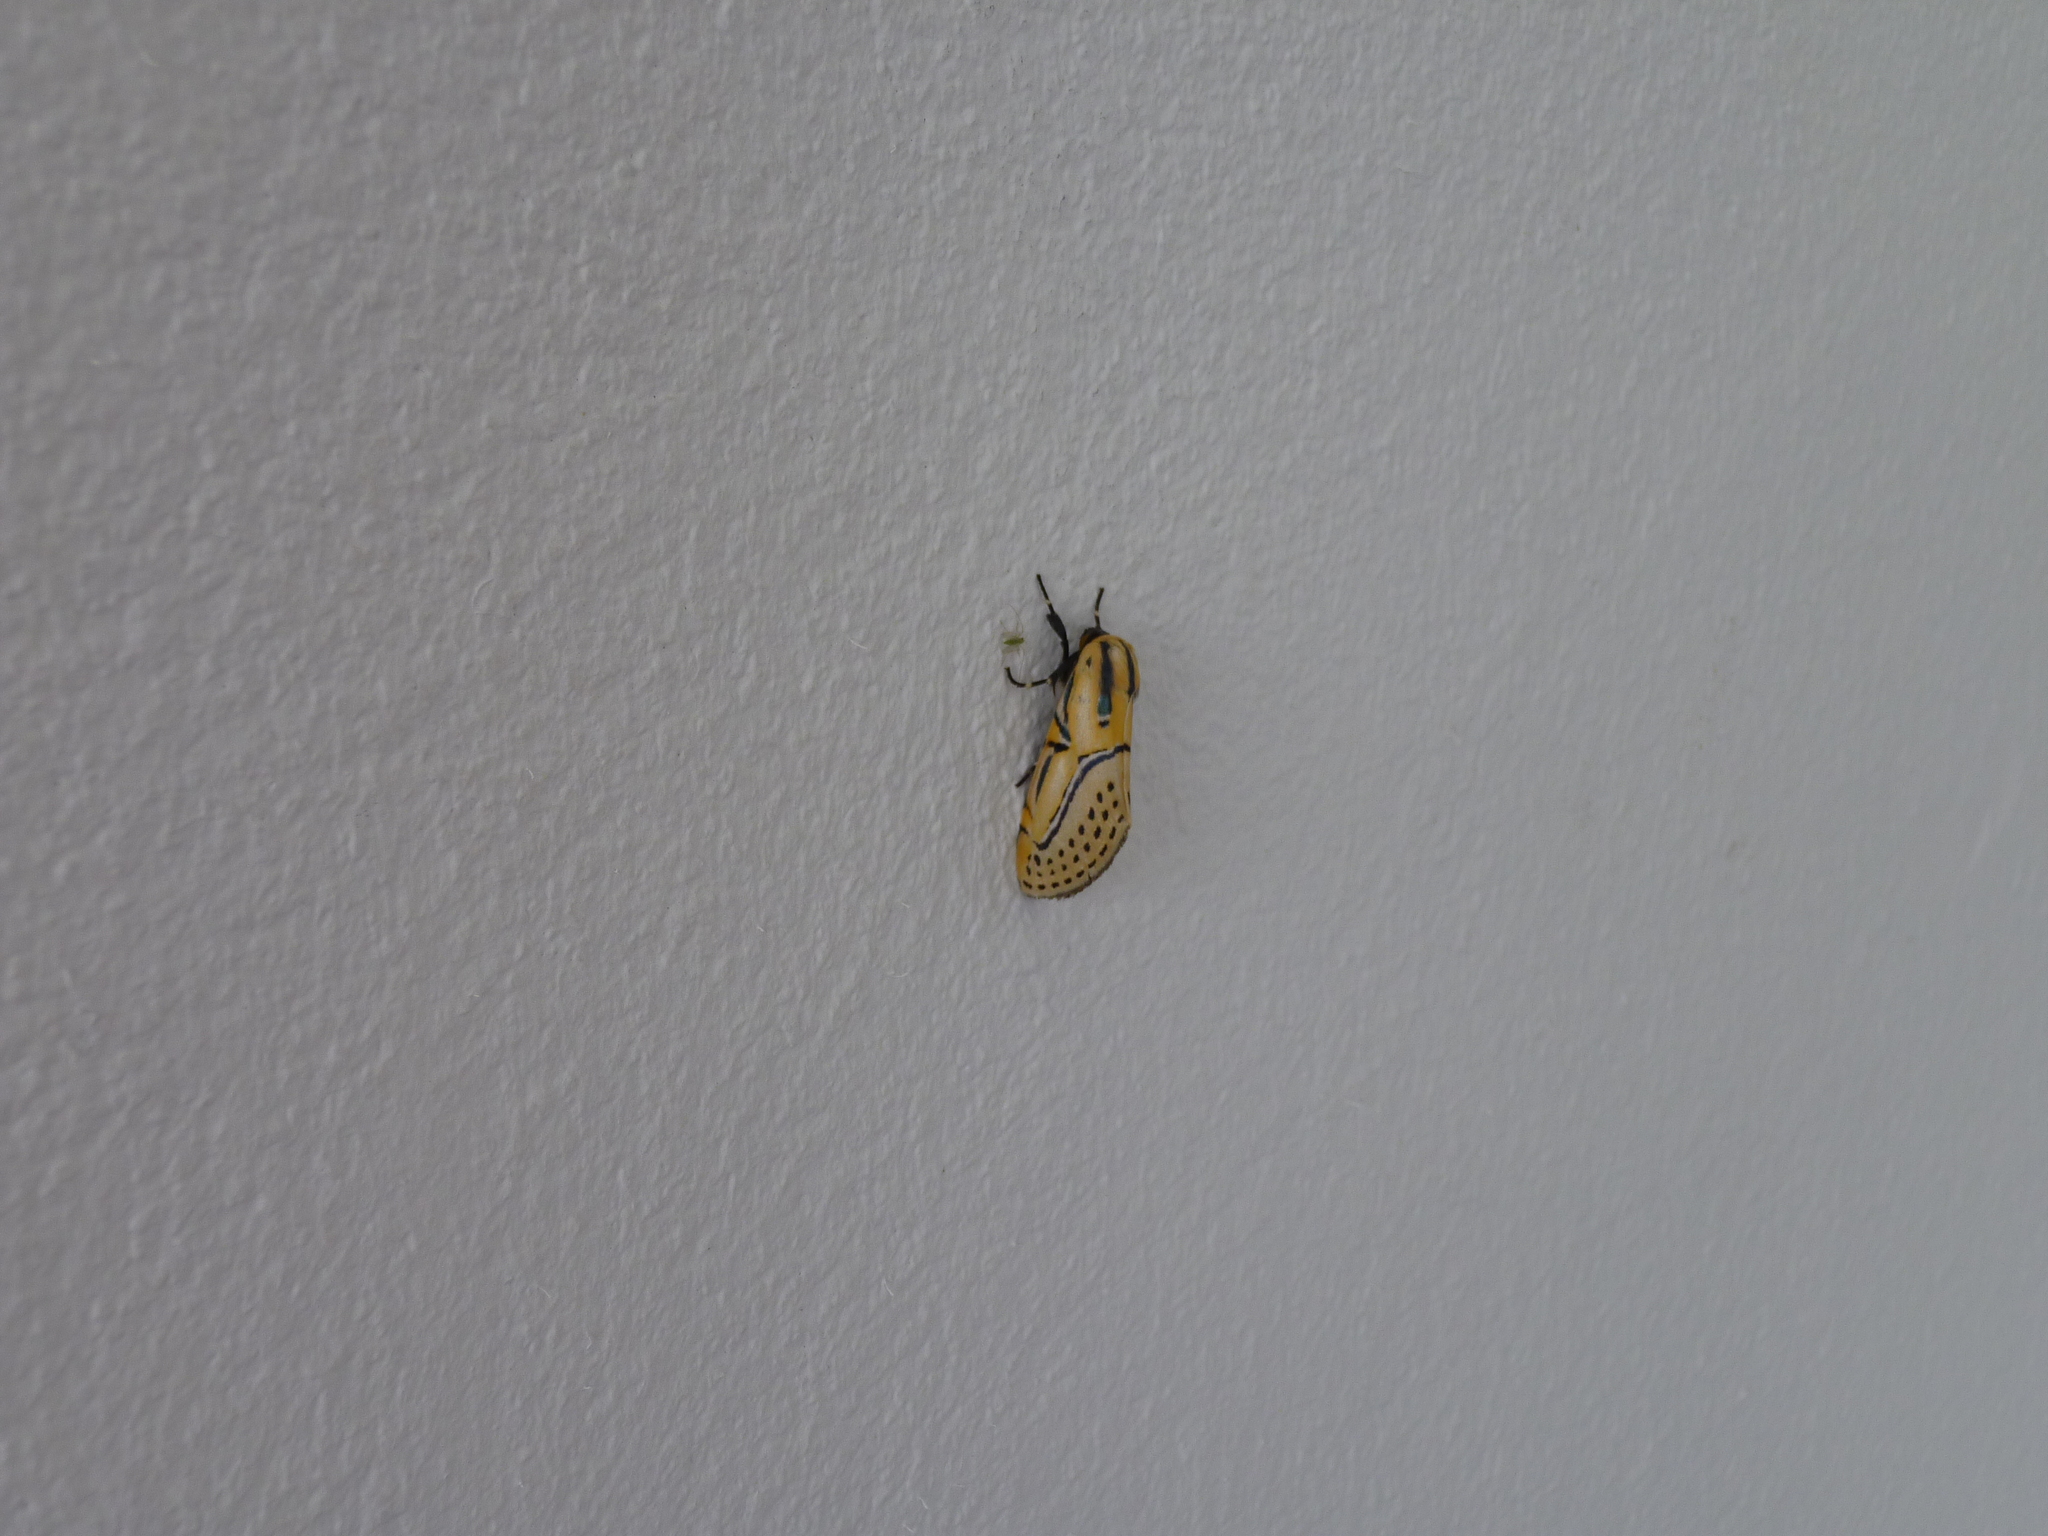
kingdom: Animalia
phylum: Arthropoda
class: Insecta
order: Lepidoptera
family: Erebidae
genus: Diphthera
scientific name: Diphthera festiva
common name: Hieroglyphic moth
